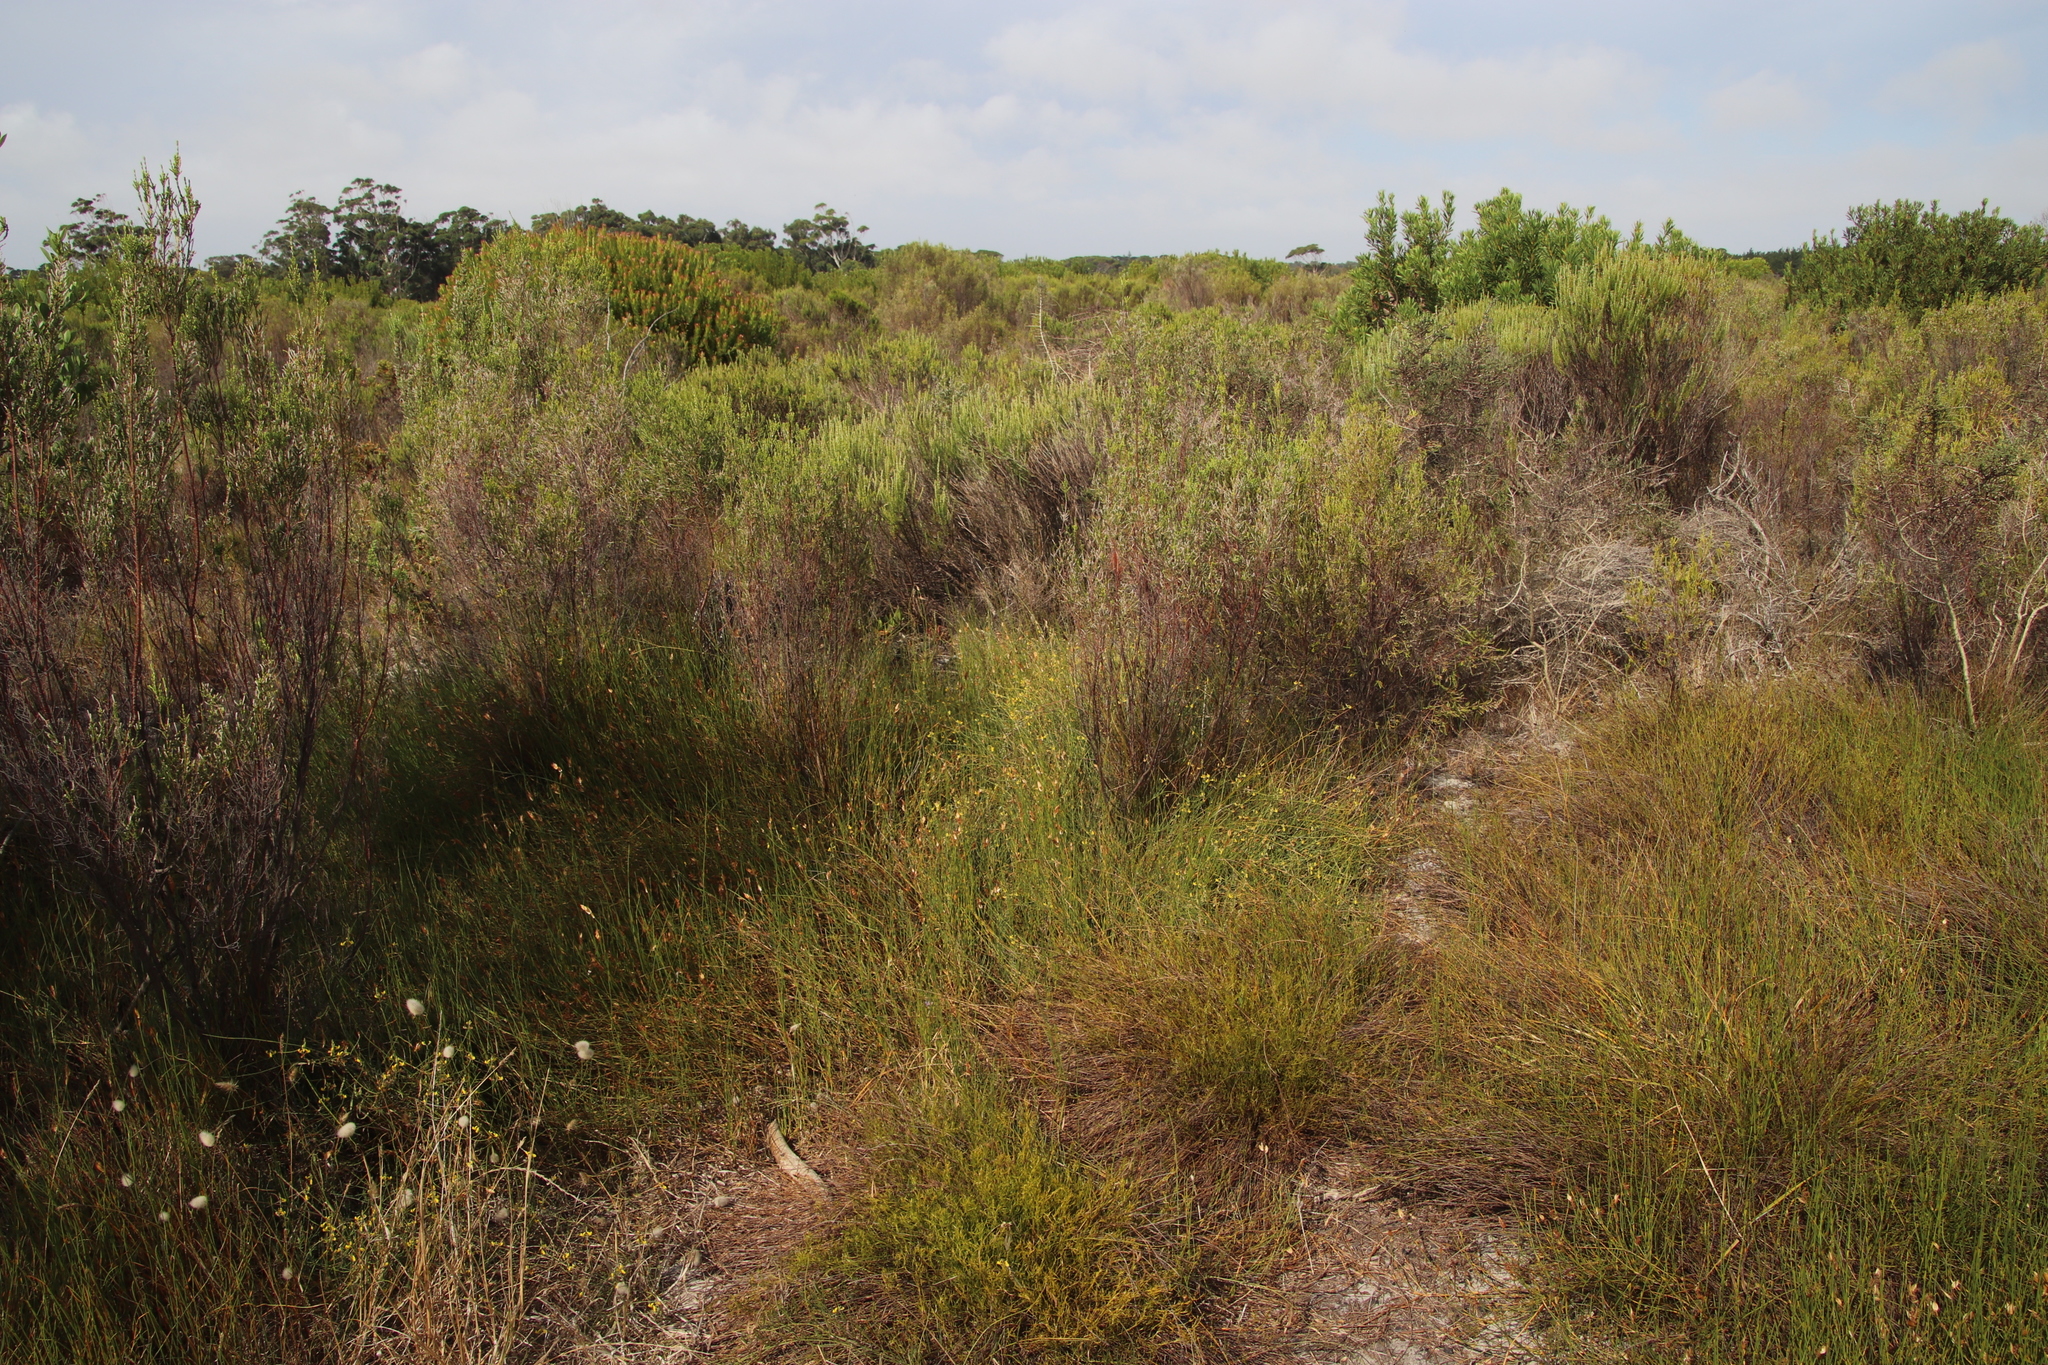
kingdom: Plantae
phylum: Tracheophyta
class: Magnoliopsida
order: Fabales
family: Fabaceae
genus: Lebeckia
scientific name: Lebeckia contaminata
